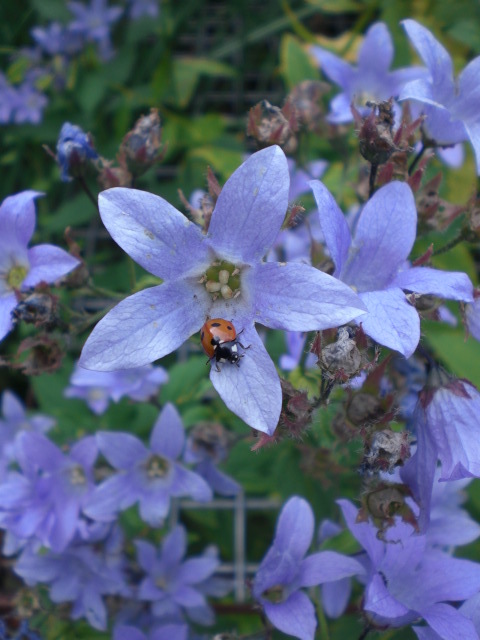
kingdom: Animalia
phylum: Arthropoda
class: Insecta
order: Coleoptera
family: Coccinellidae
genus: Coccinella
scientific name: Coccinella septempunctata
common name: Sevenspotted lady beetle
